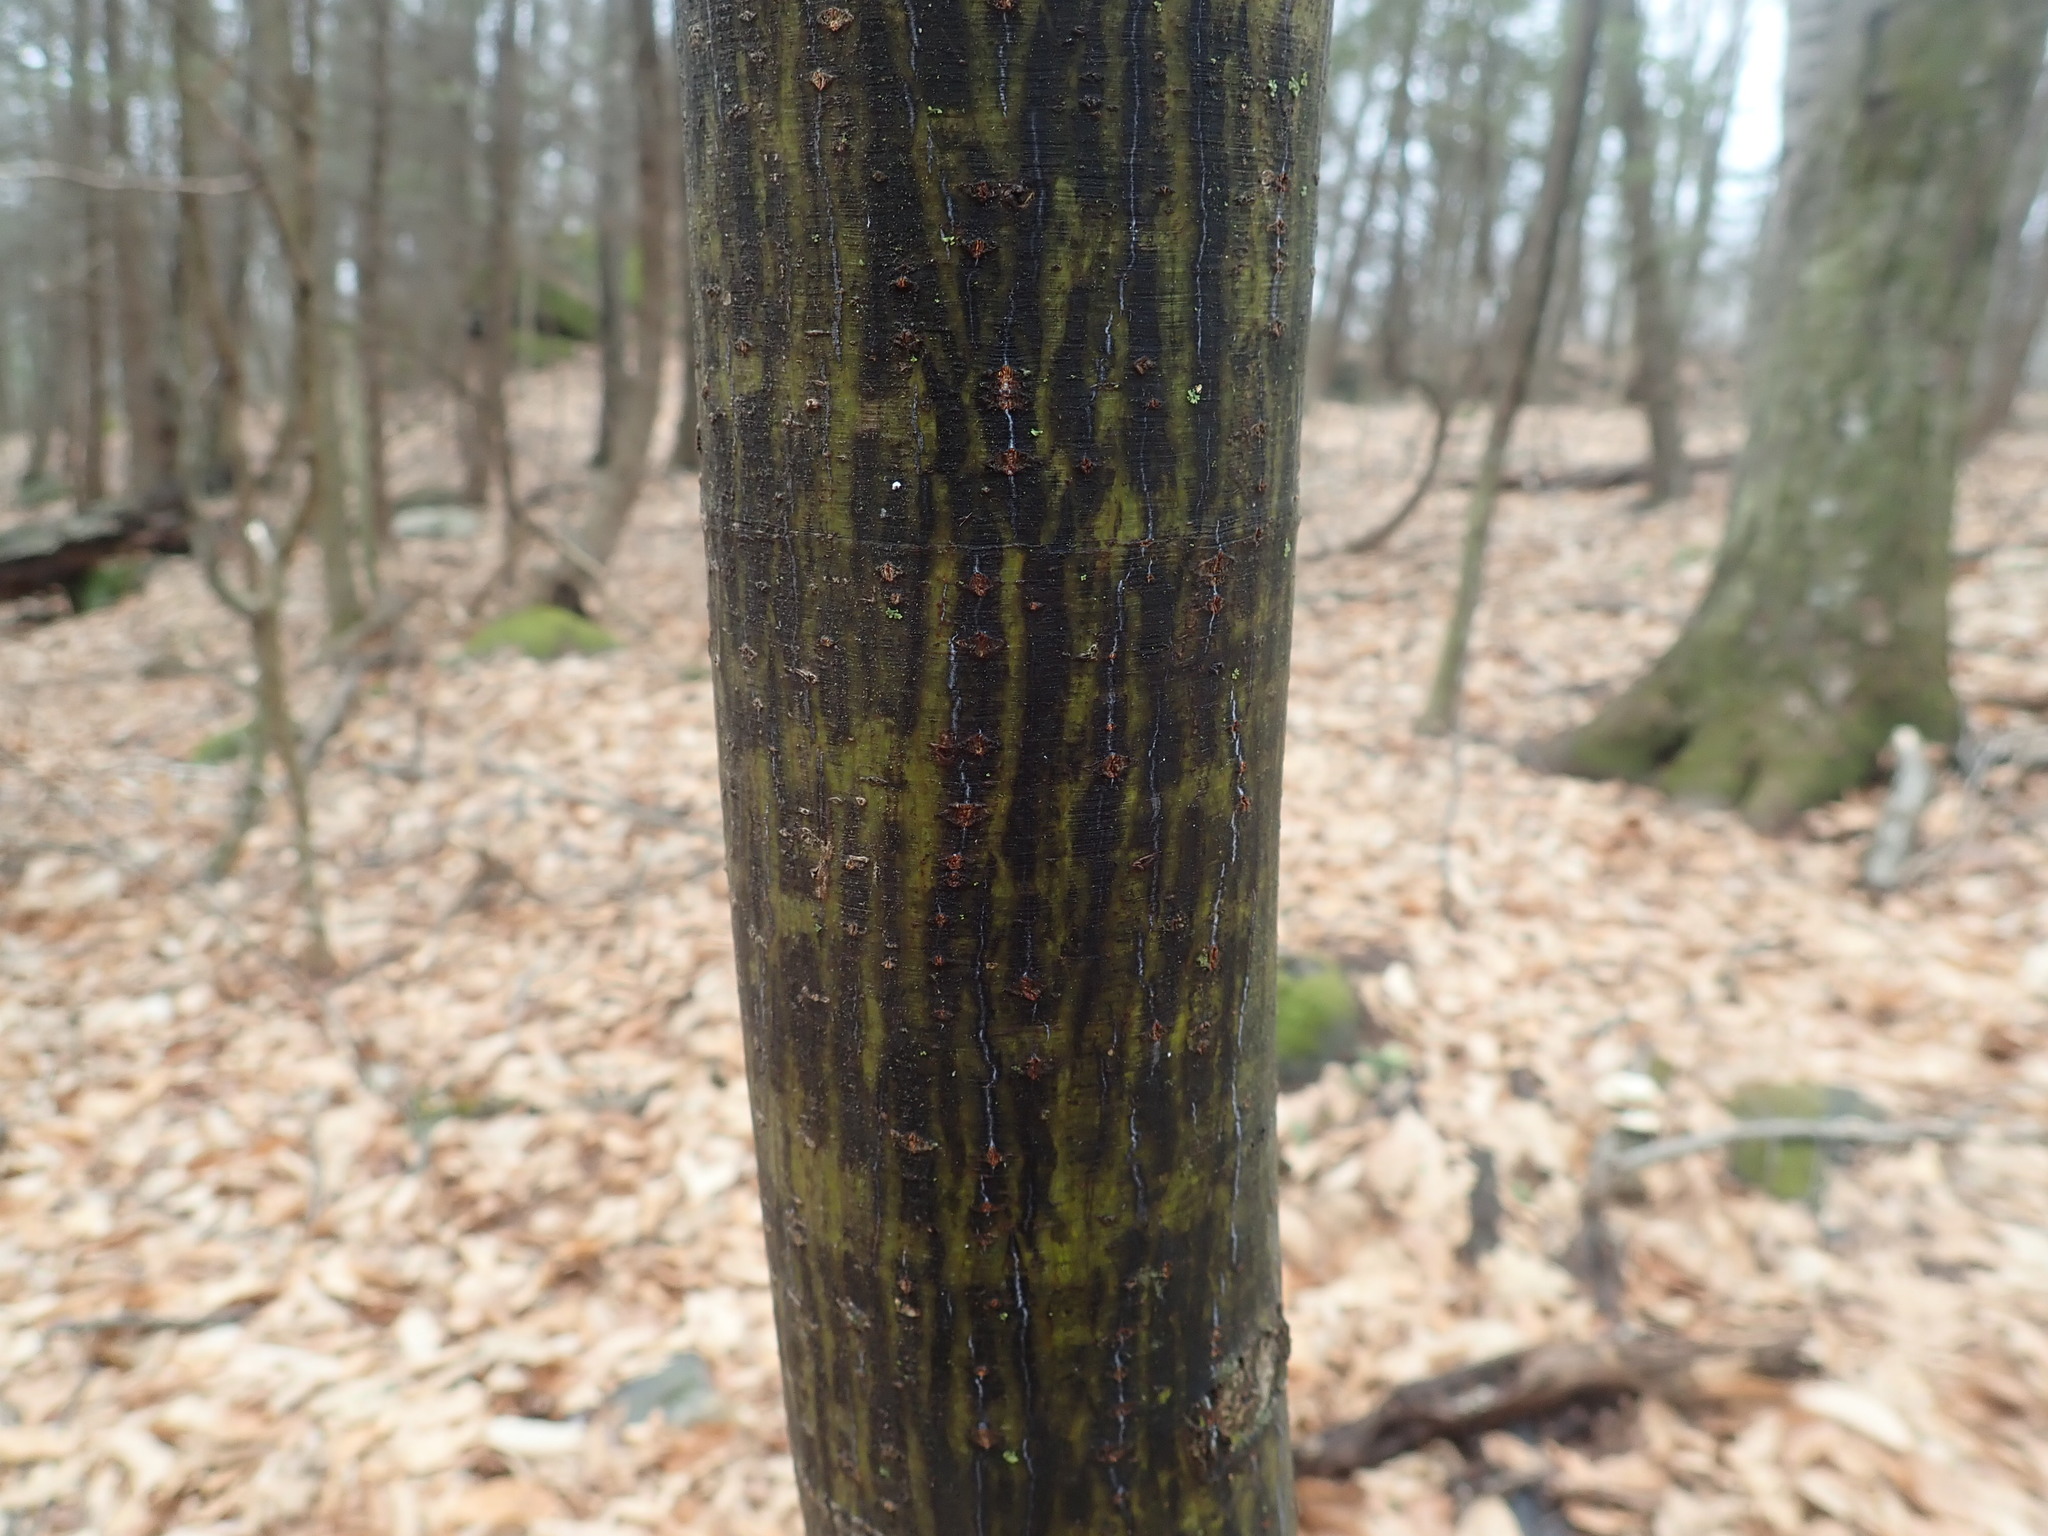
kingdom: Plantae
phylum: Tracheophyta
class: Magnoliopsida
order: Sapindales
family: Sapindaceae
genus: Acer
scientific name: Acer pensylvanicum
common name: Moosewood
